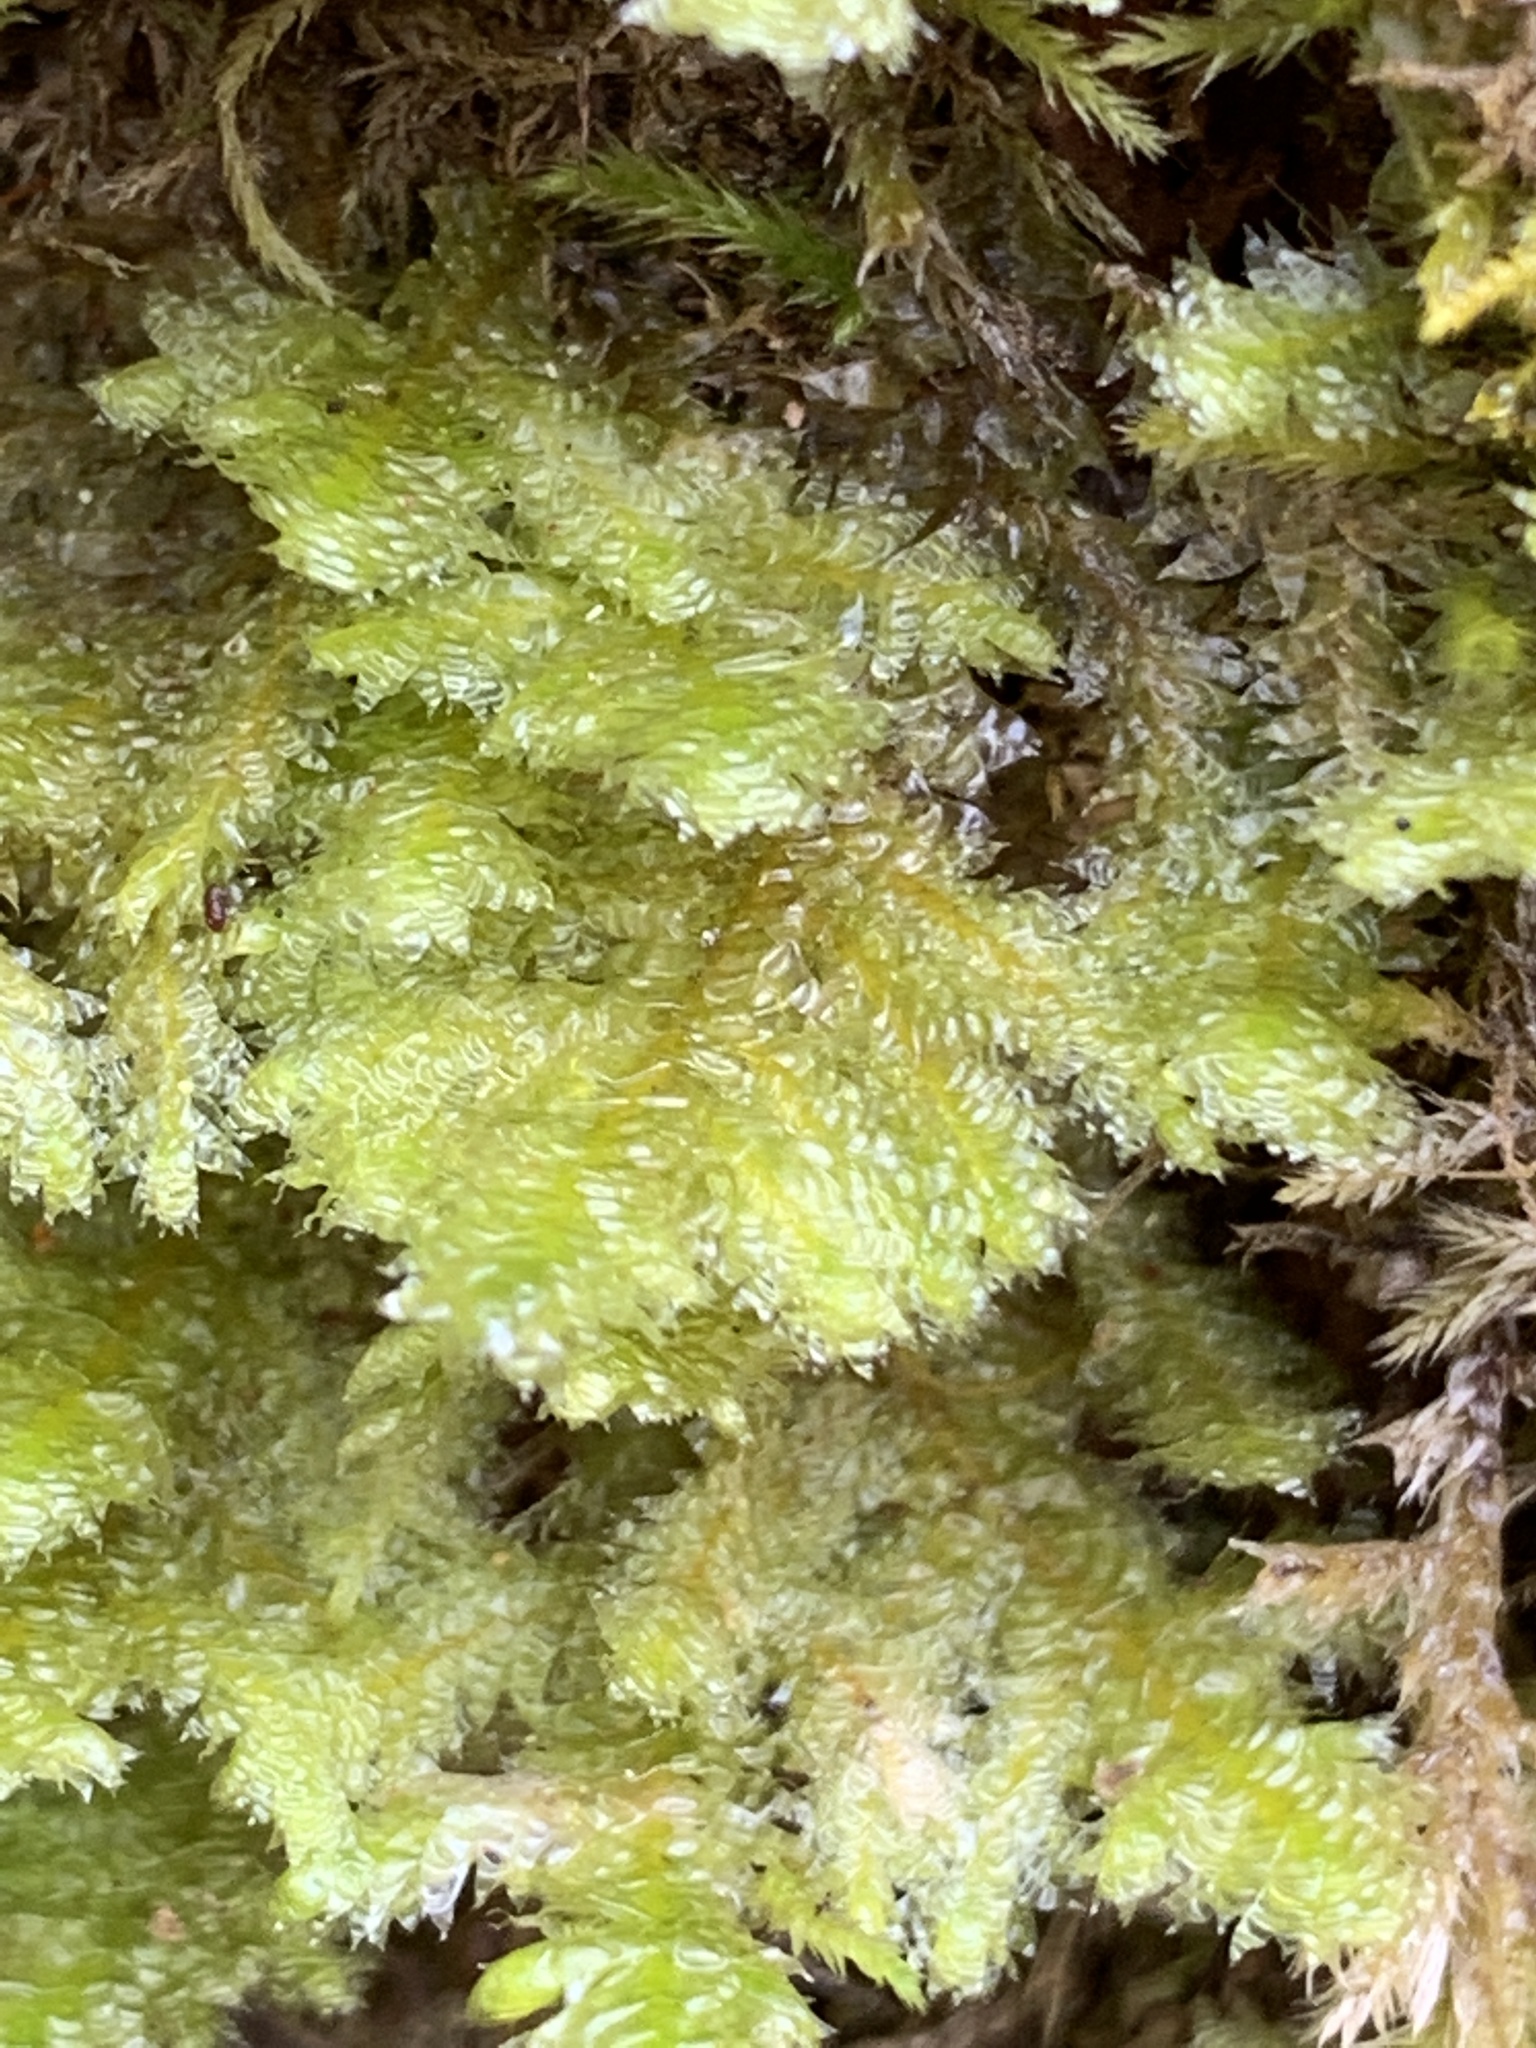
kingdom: Plantae
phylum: Bryophyta
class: Bryopsida
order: Hypnales
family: Neckeraceae
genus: Neckera
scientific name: Neckera pennata
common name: Feathery neckera
